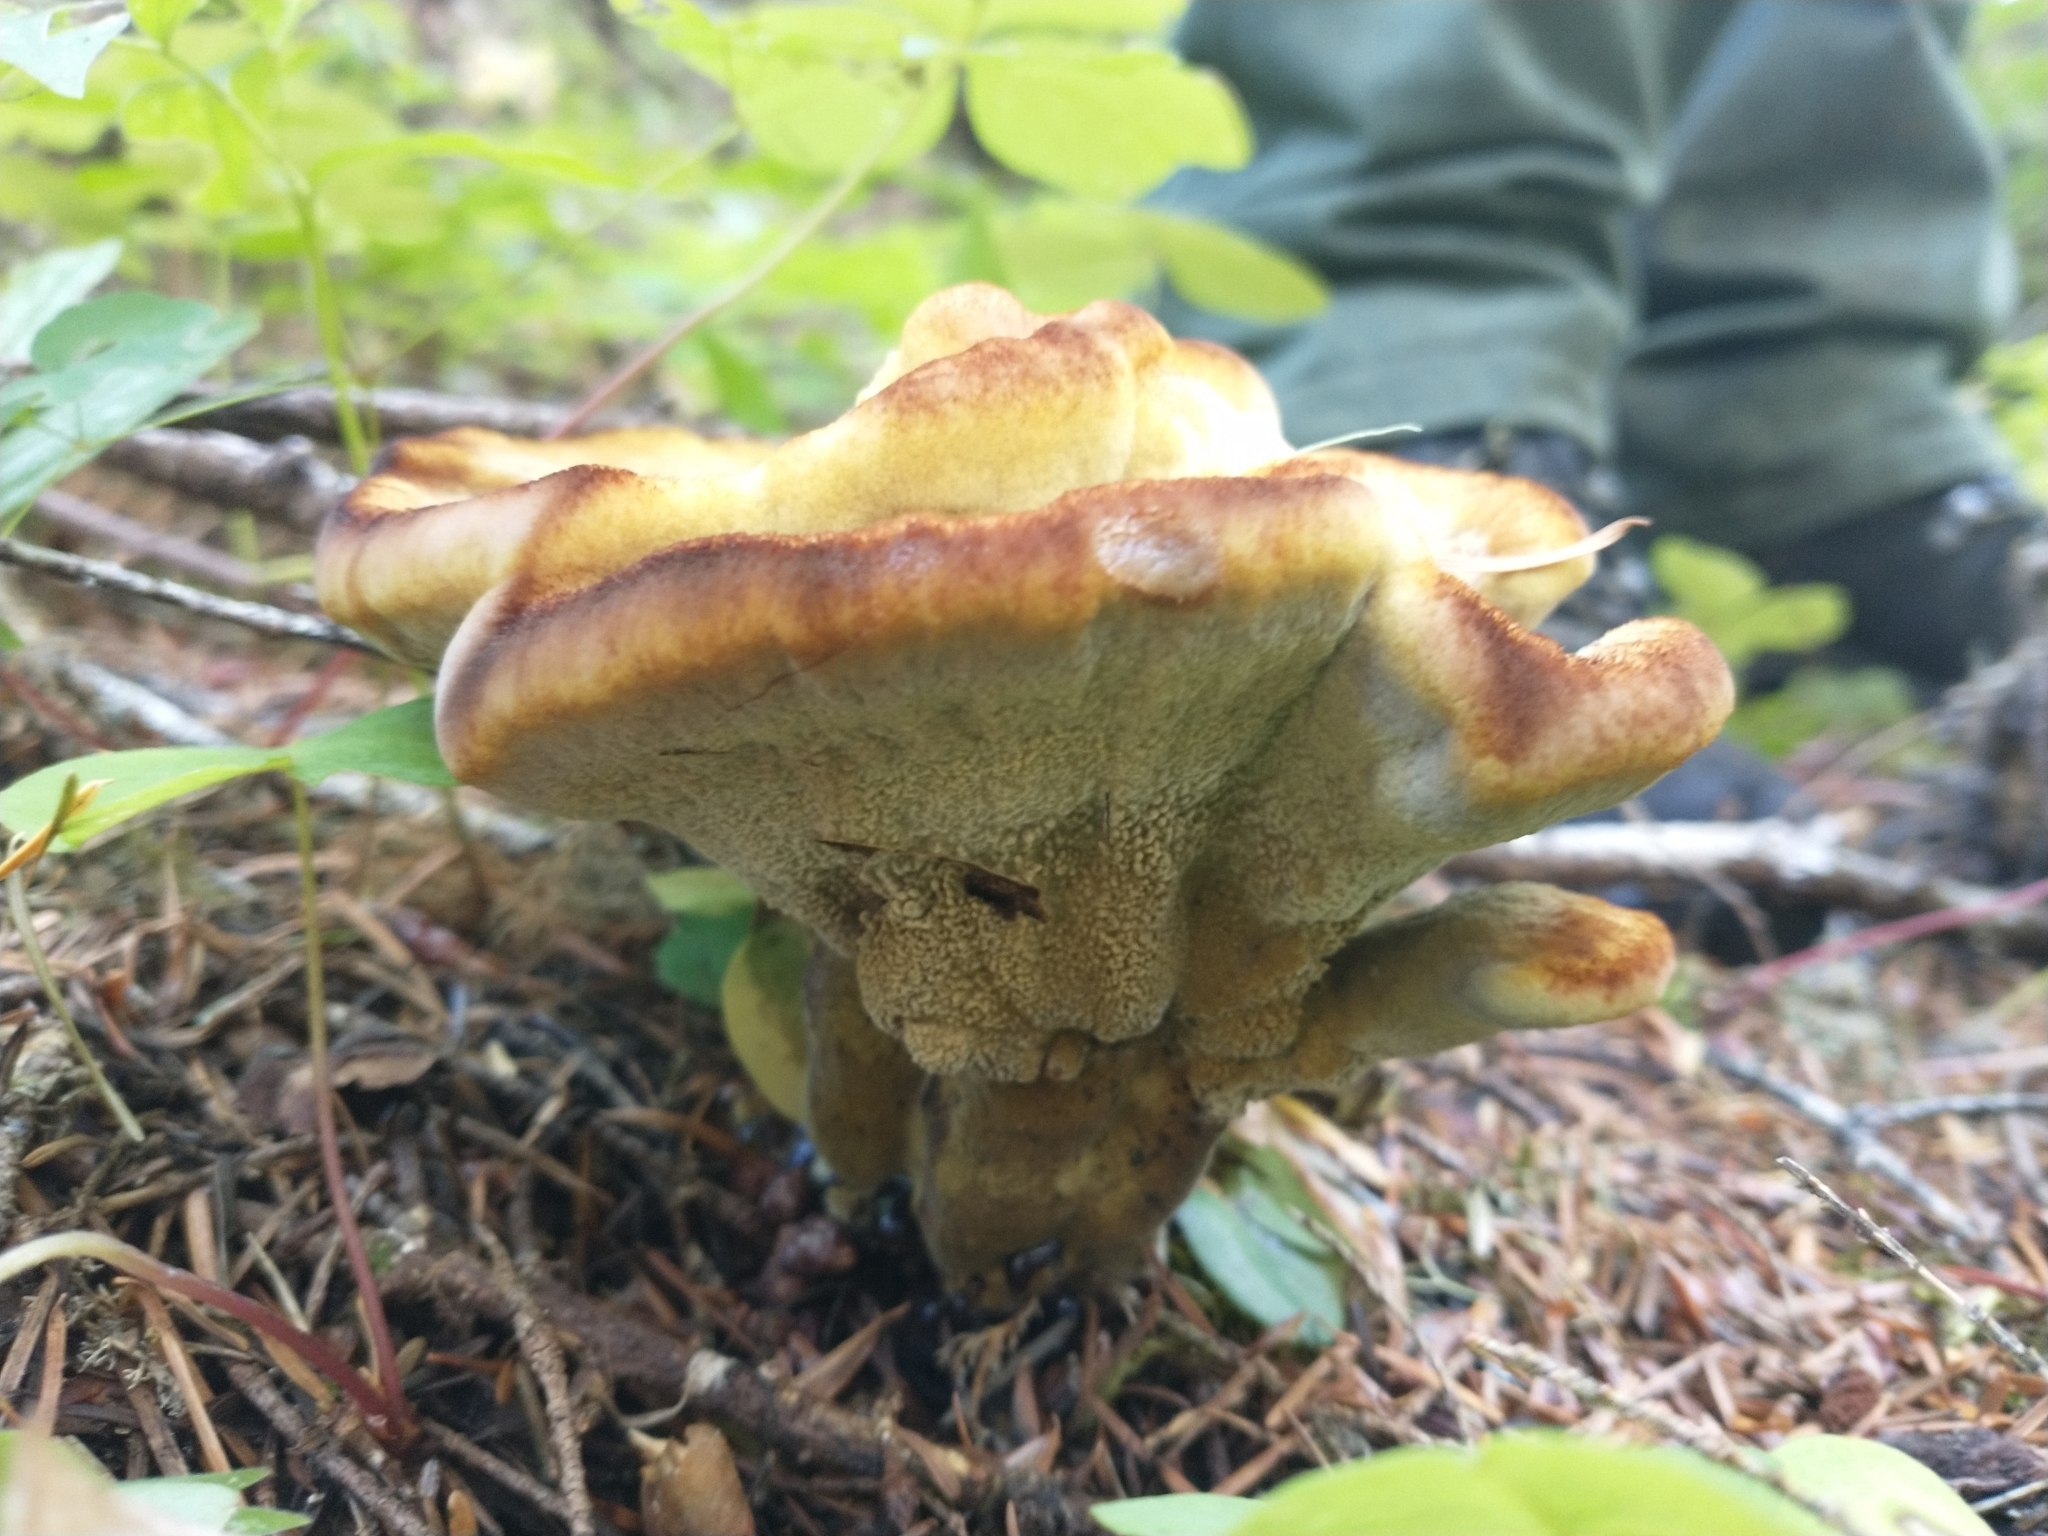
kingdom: Fungi
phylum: Basidiomycota
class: Agaricomycetes
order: Polyporales
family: Laetiporaceae
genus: Phaeolus
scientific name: Phaeolus schweinitzii
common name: Dyer's mazegill
